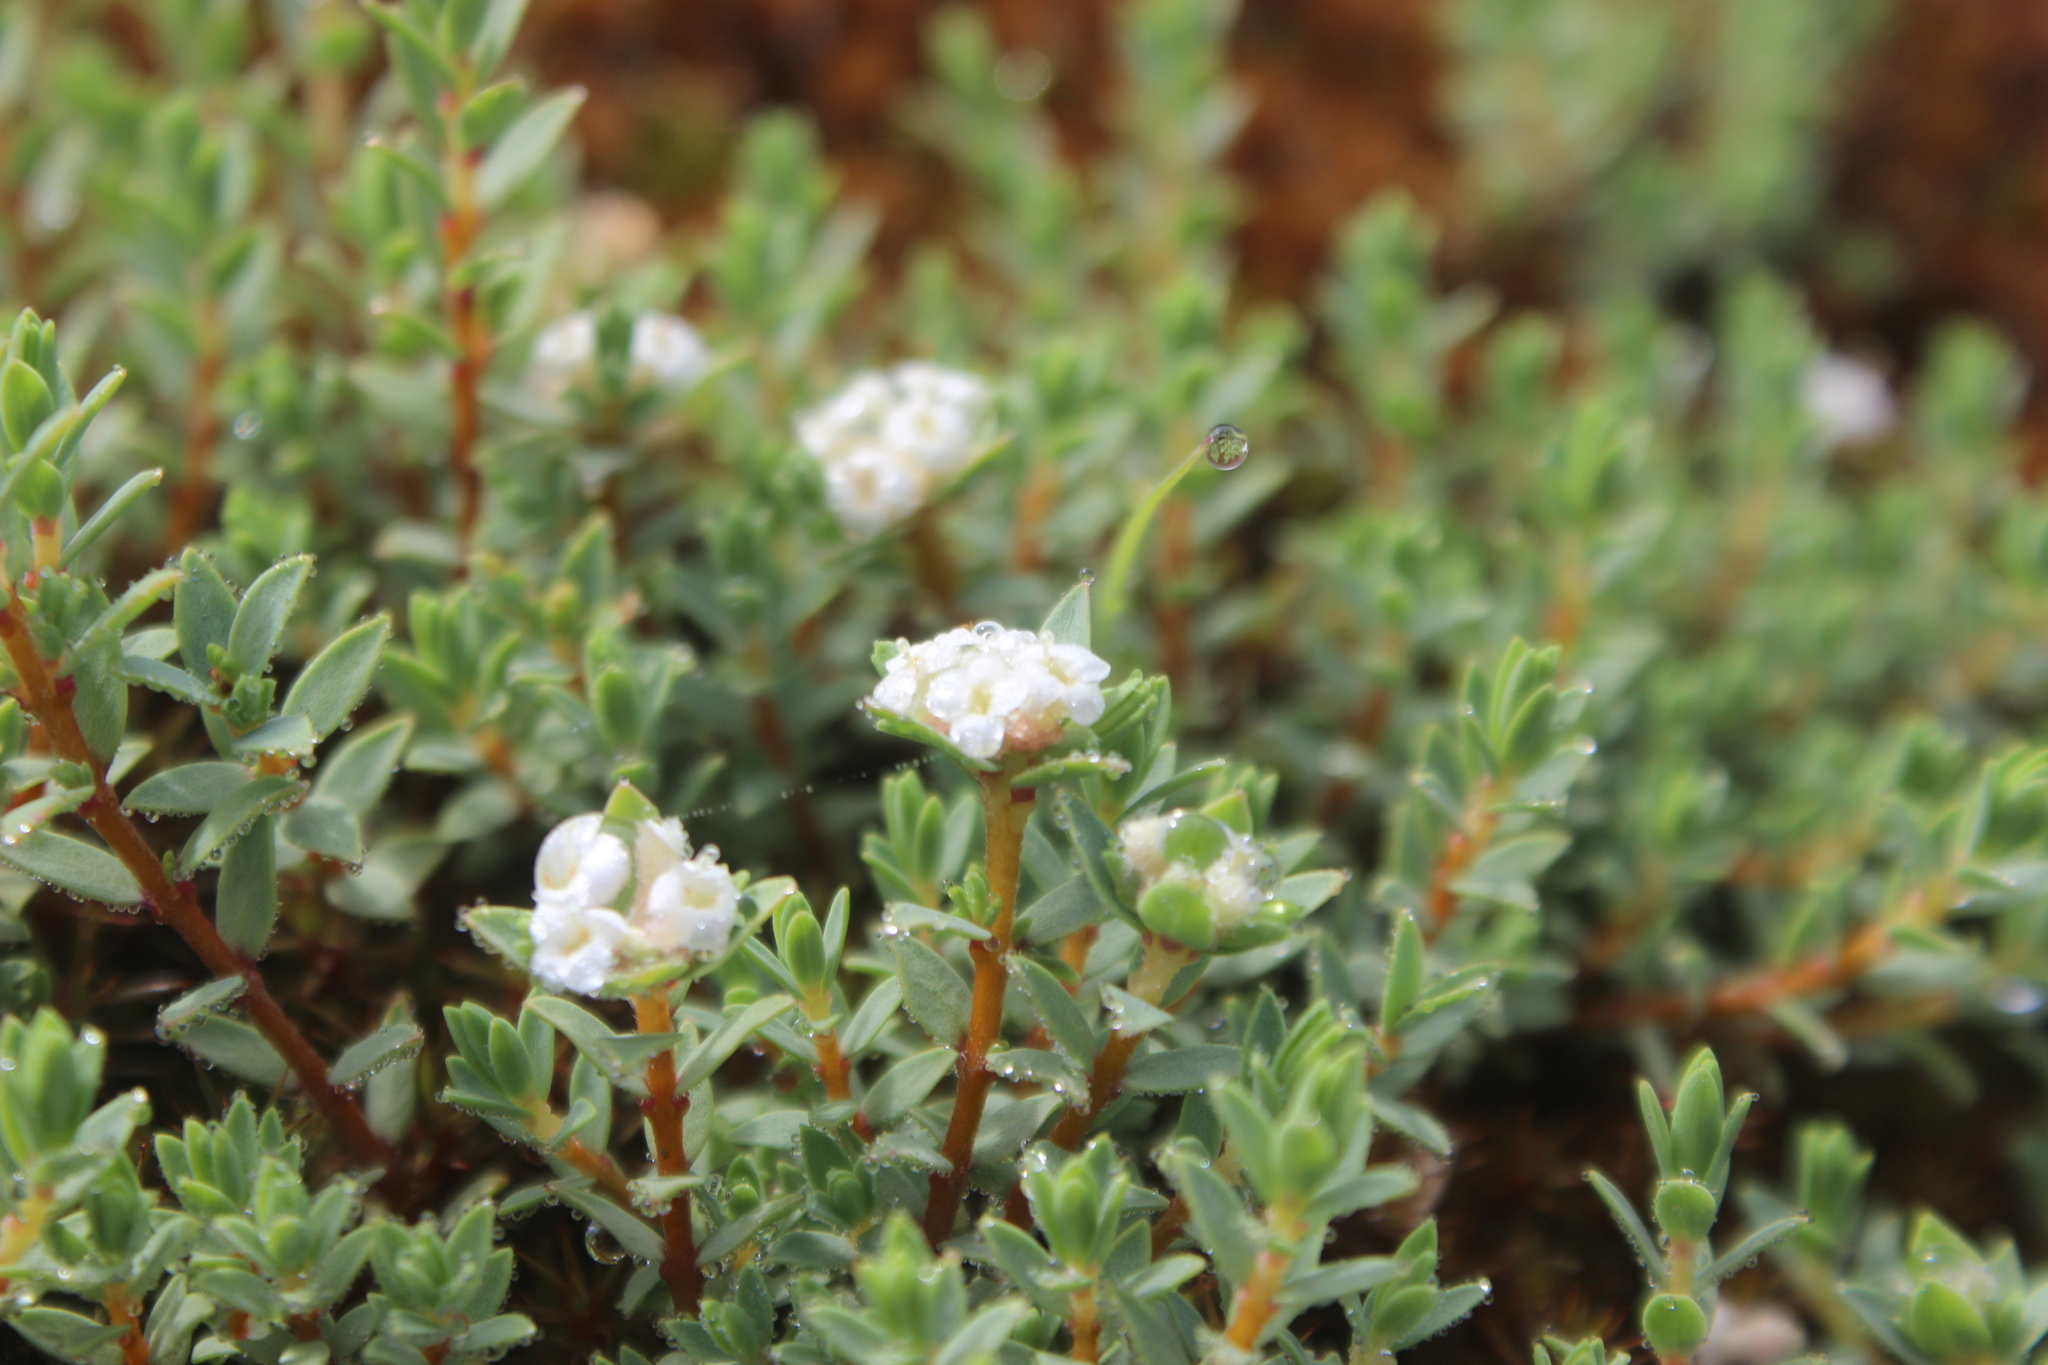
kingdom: Plantae
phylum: Tracheophyta
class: Magnoliopsida
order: Malvales
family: Thymelaeaceae
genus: Pimelea
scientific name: Pimelea microphylla
